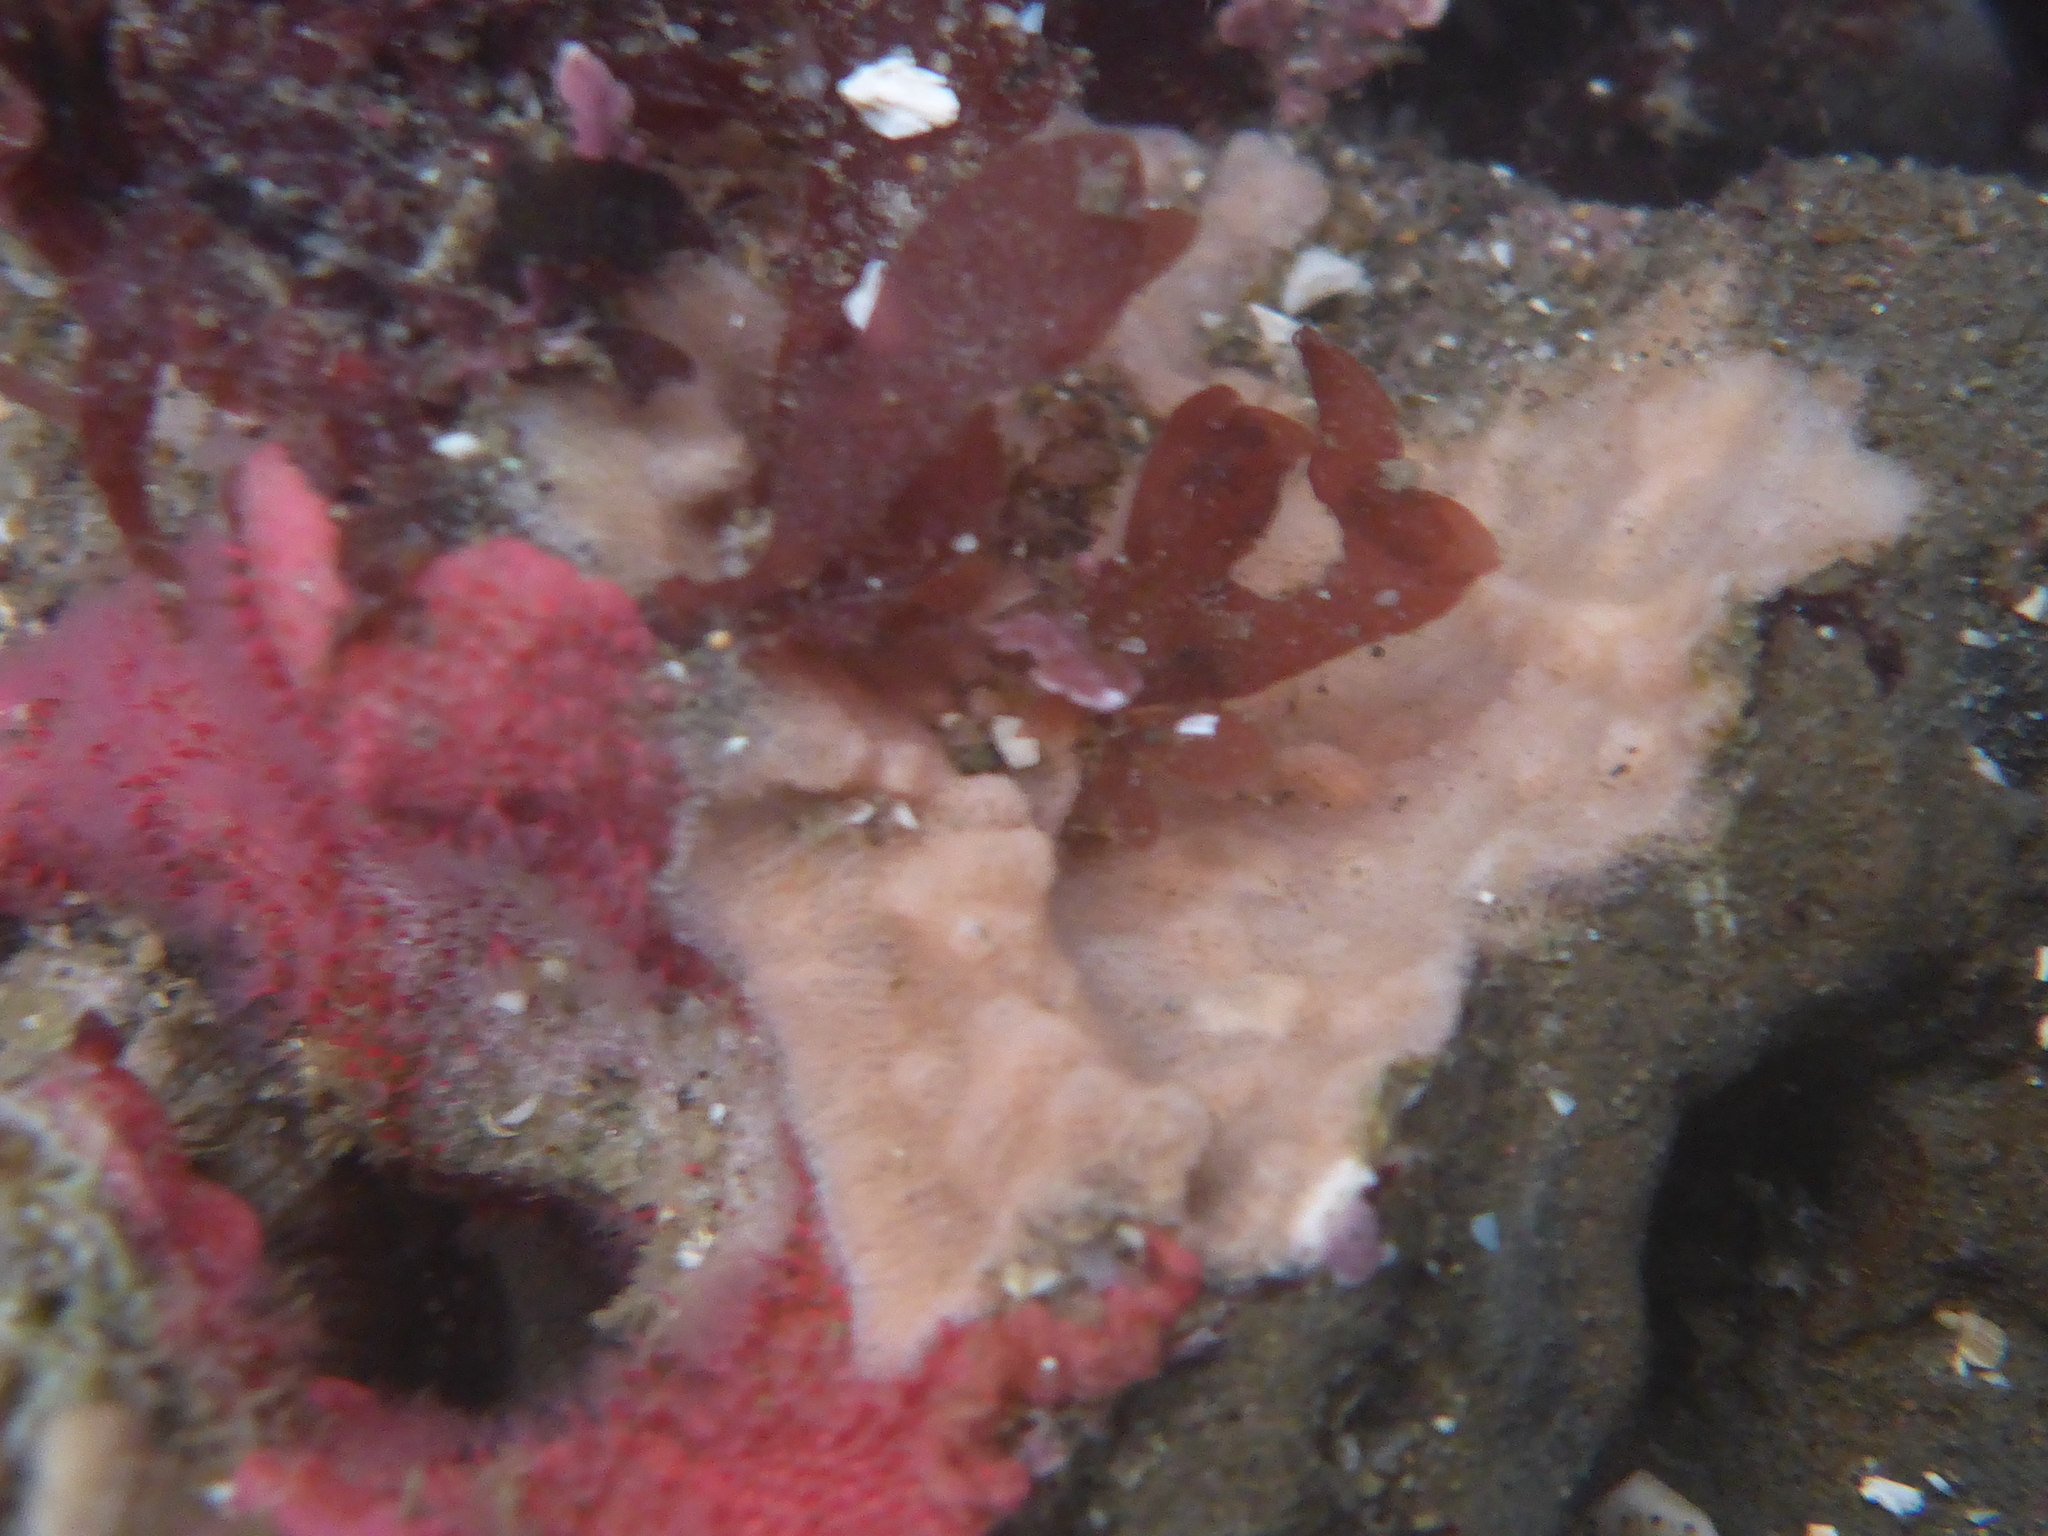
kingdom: Animalia
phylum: Bryozoa
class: Gymnolaemata
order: Cheilostomatida
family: Eurystomellidae
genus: Integripelta
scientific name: Integripelta bilabiata
